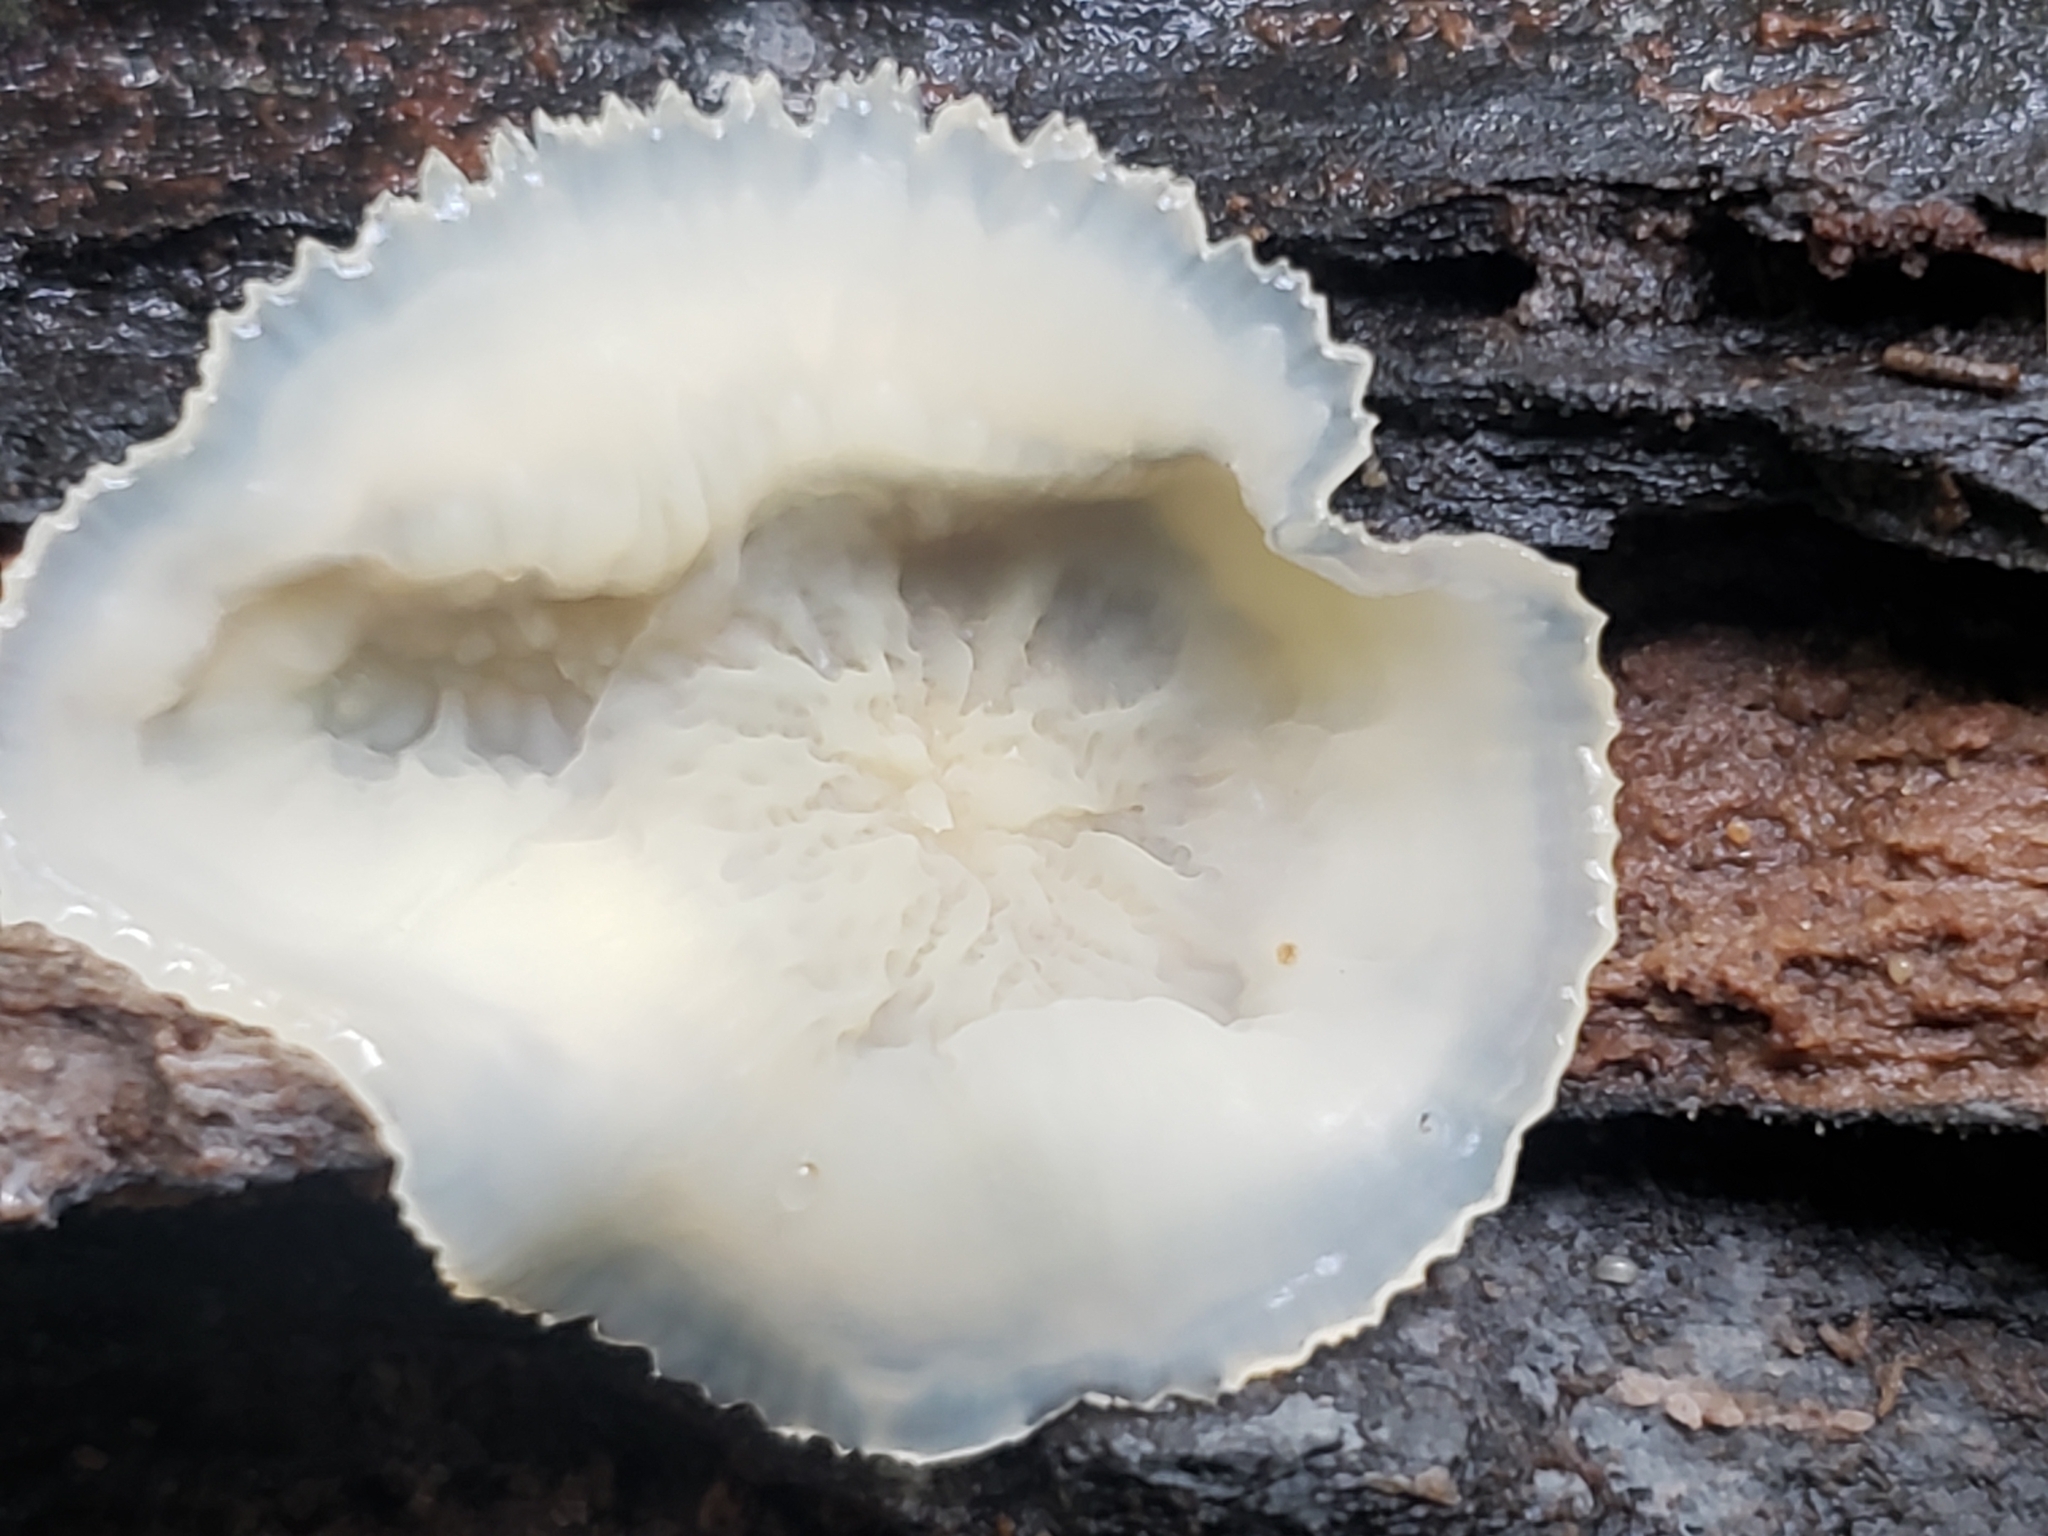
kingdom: Fungi
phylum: Basidiomycota
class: Agaricomycetes
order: Polyporales
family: Meruliaceae
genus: Phlebia
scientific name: Phlebia tremellosa
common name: Jelly rot
